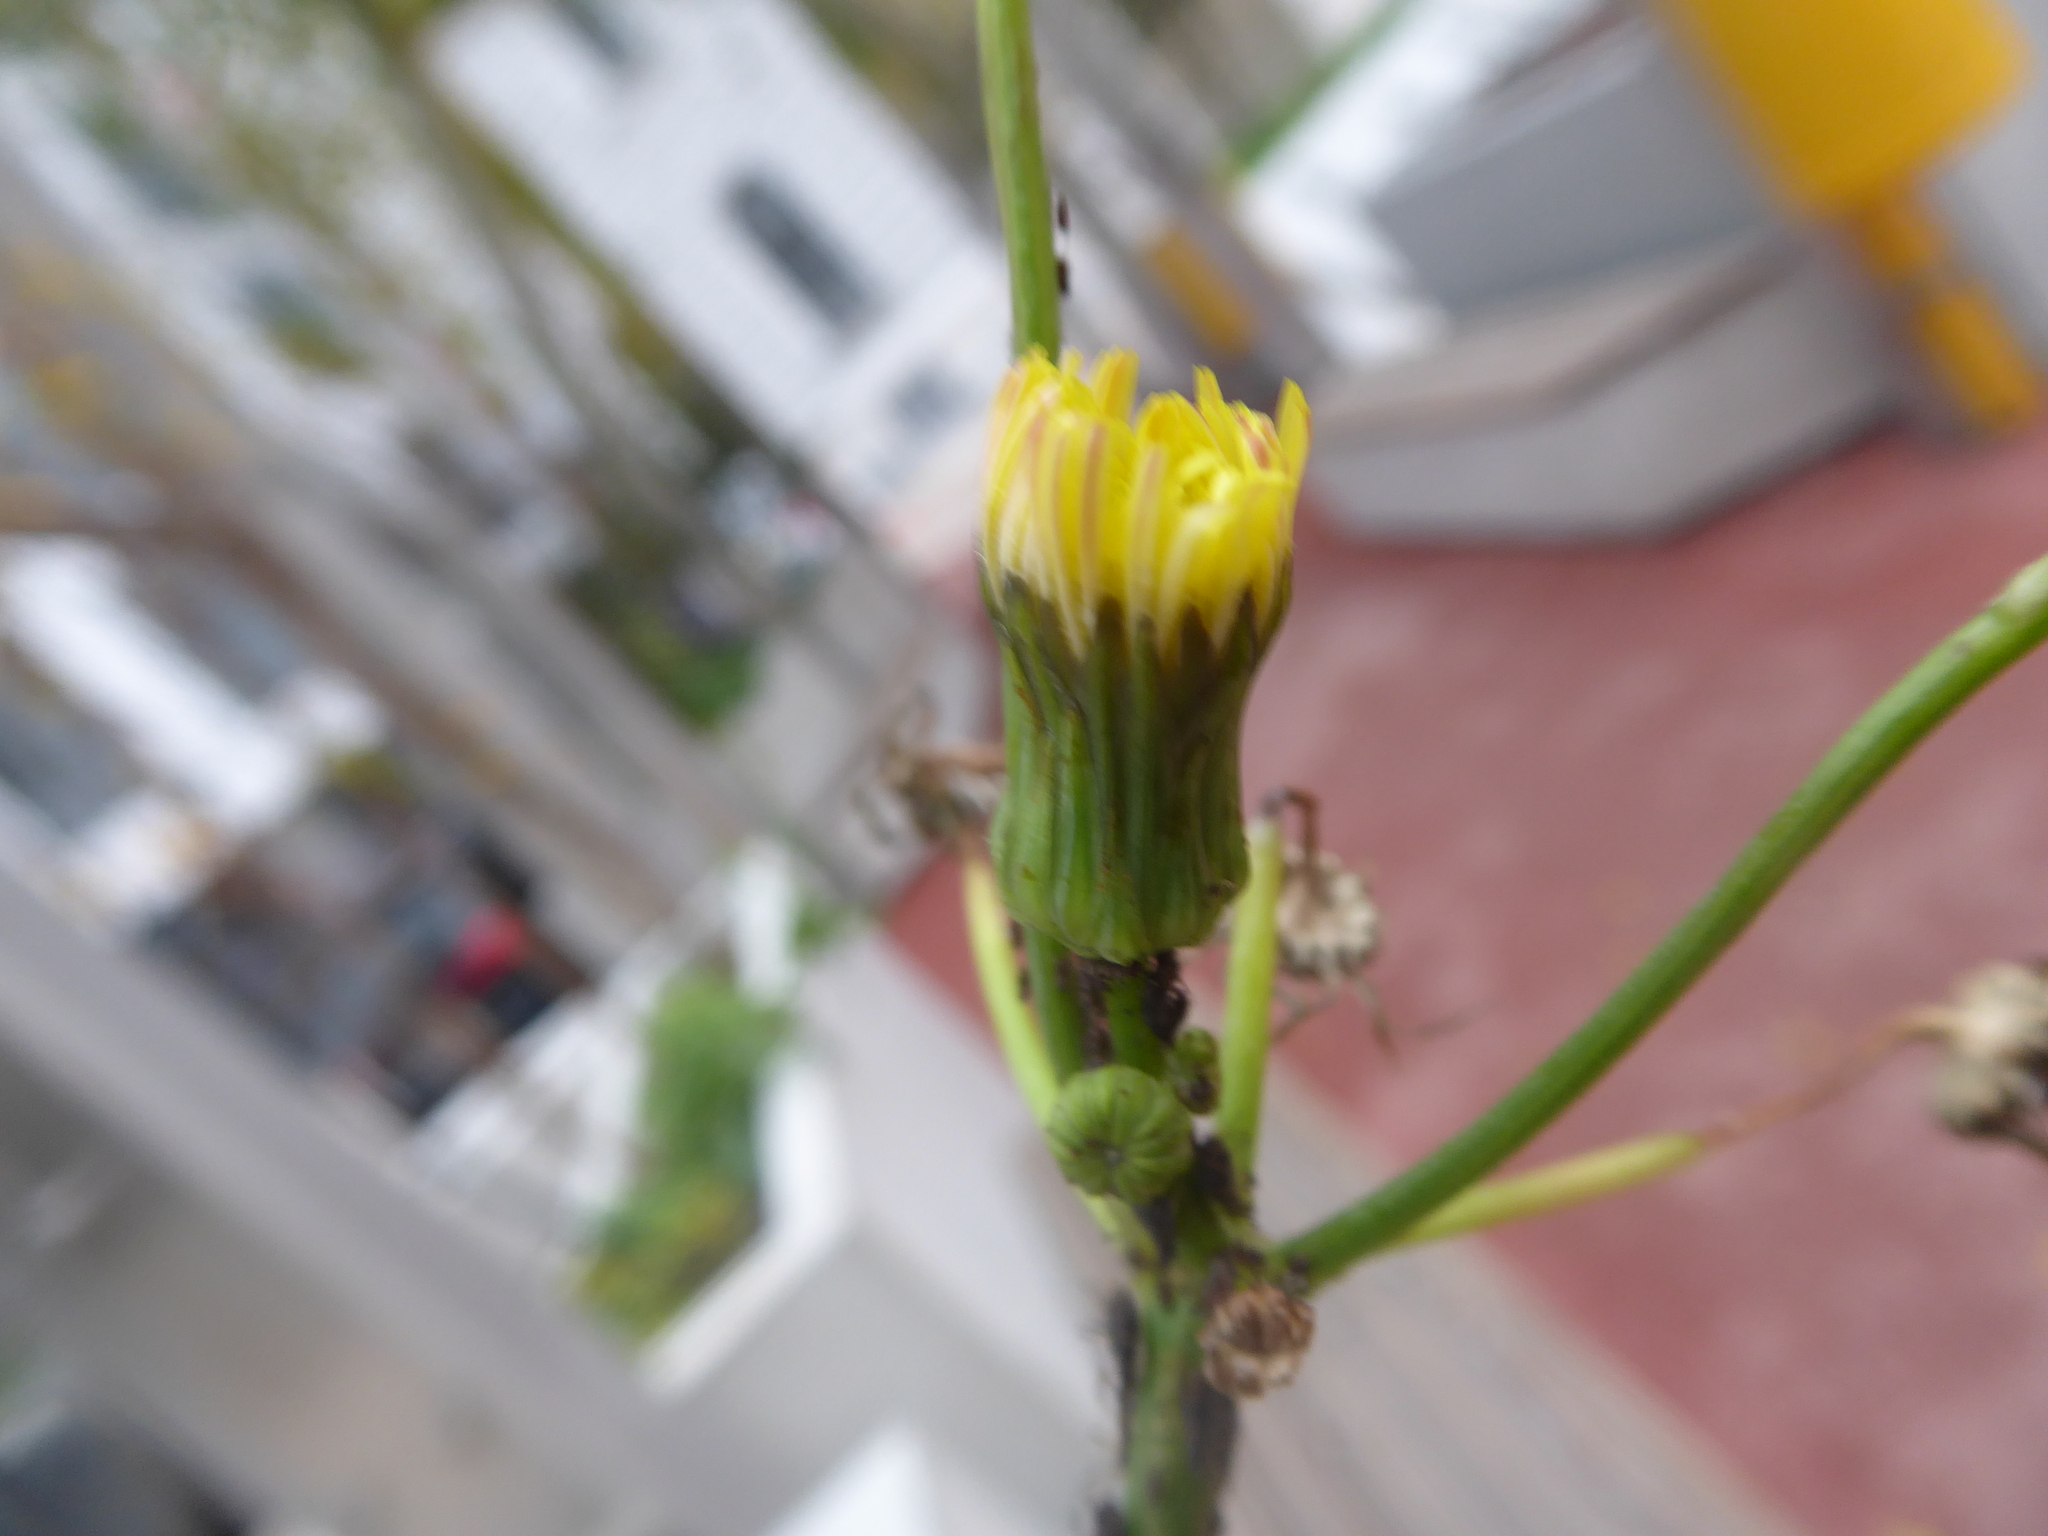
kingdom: Plantae
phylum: Tracheophyta
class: Magnoliopsida
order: Asterales
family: Asteraceae
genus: Sonchus
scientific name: Sonchus asper
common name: Prickly sow-thistle
